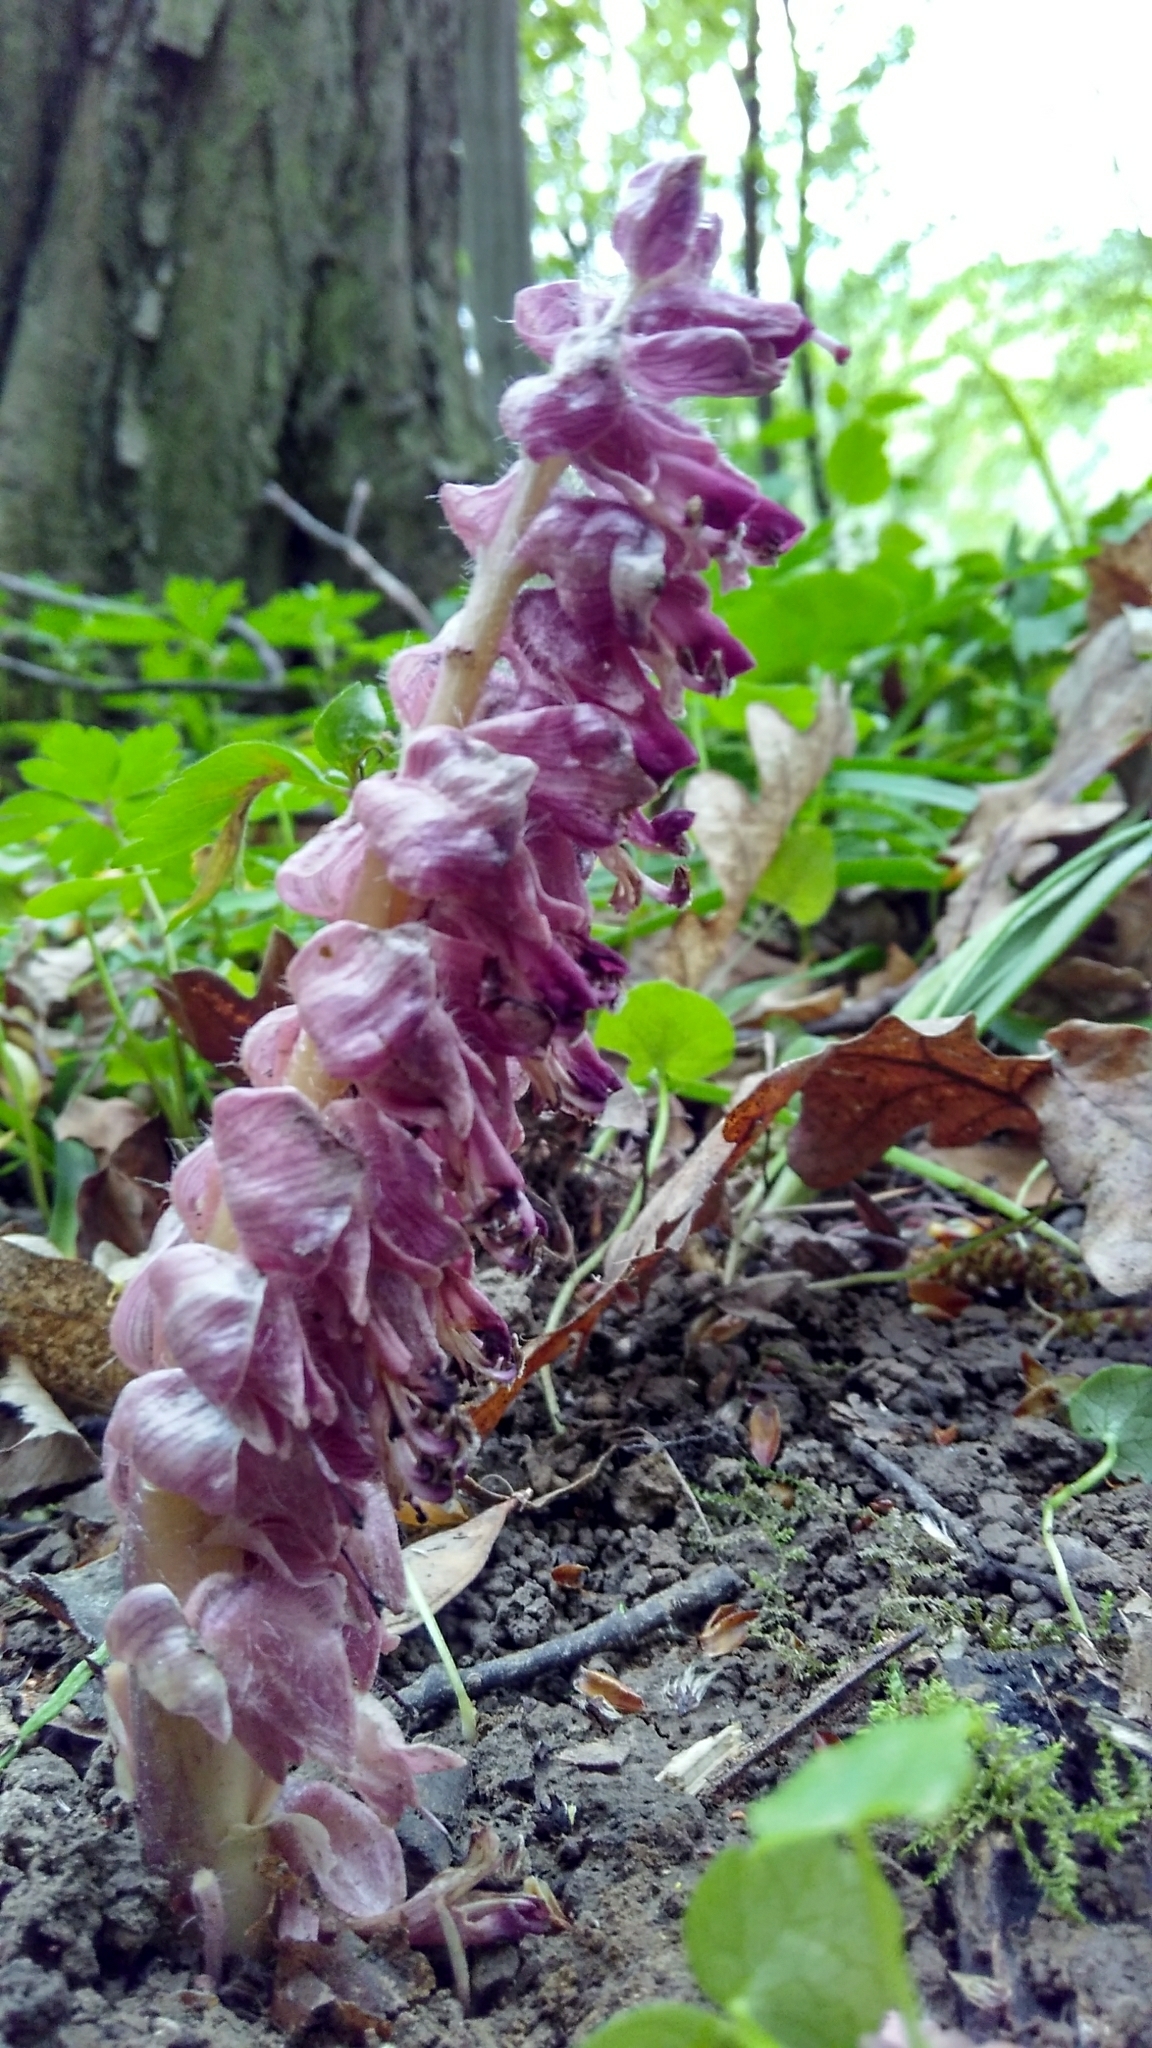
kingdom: Plantae
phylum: Tracheophyta
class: Magnoliopsida
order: Lamiales
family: Orobanchaceae
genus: Lathraea
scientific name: Lathraea squamaria
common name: Toothwort
